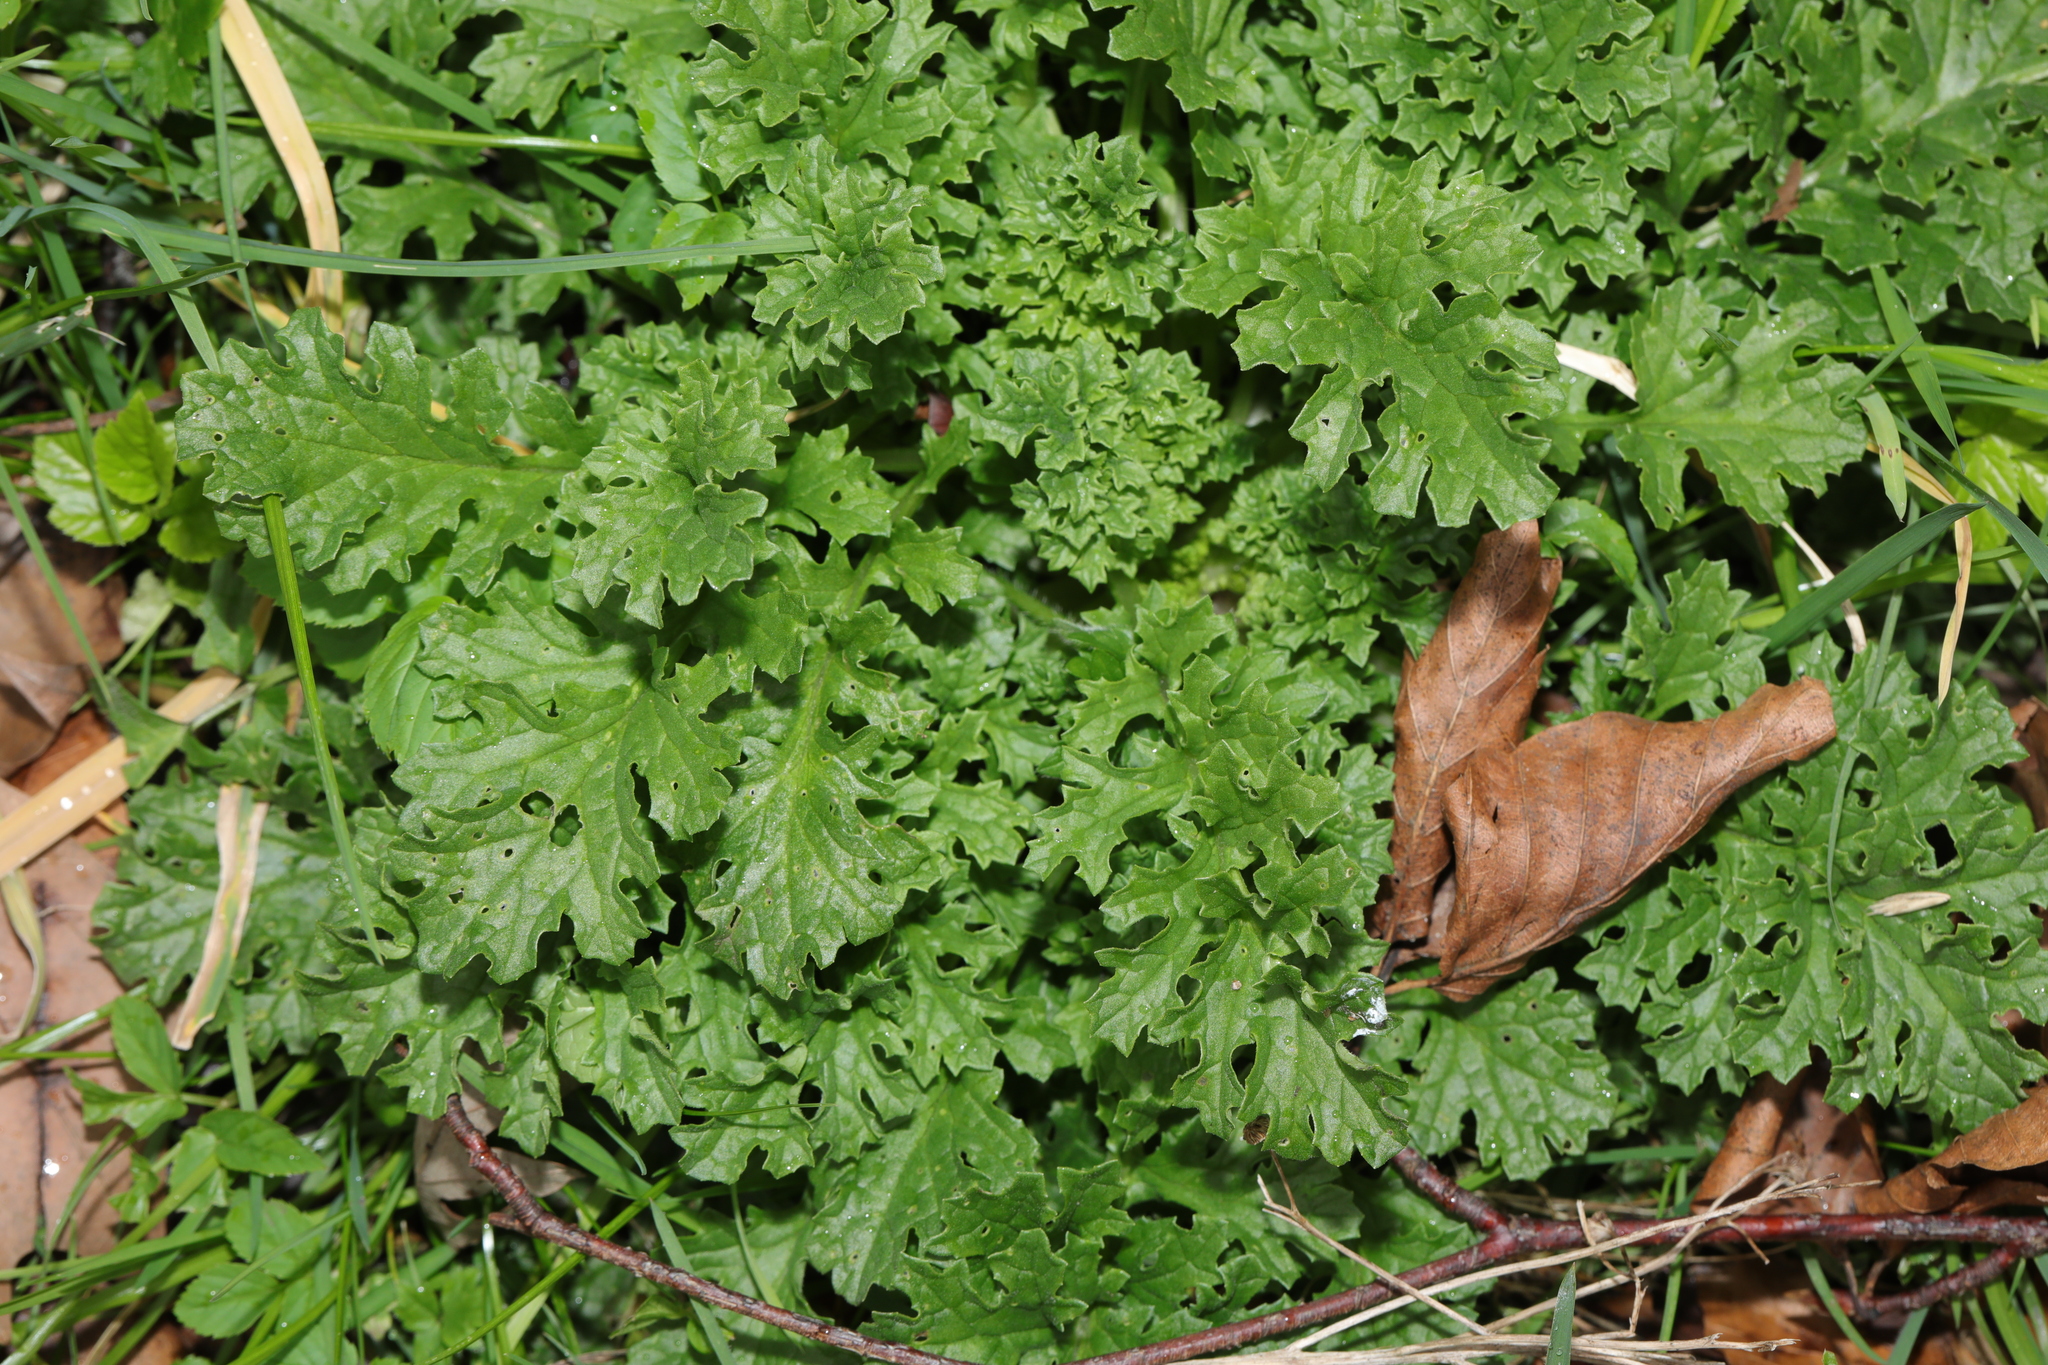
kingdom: Plantae
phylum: Tracheophyta
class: Magnoliopsida
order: Asterales
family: Asteraceae
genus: Jacobaea
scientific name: Jacobaea vulgaris
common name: Stinking willie
